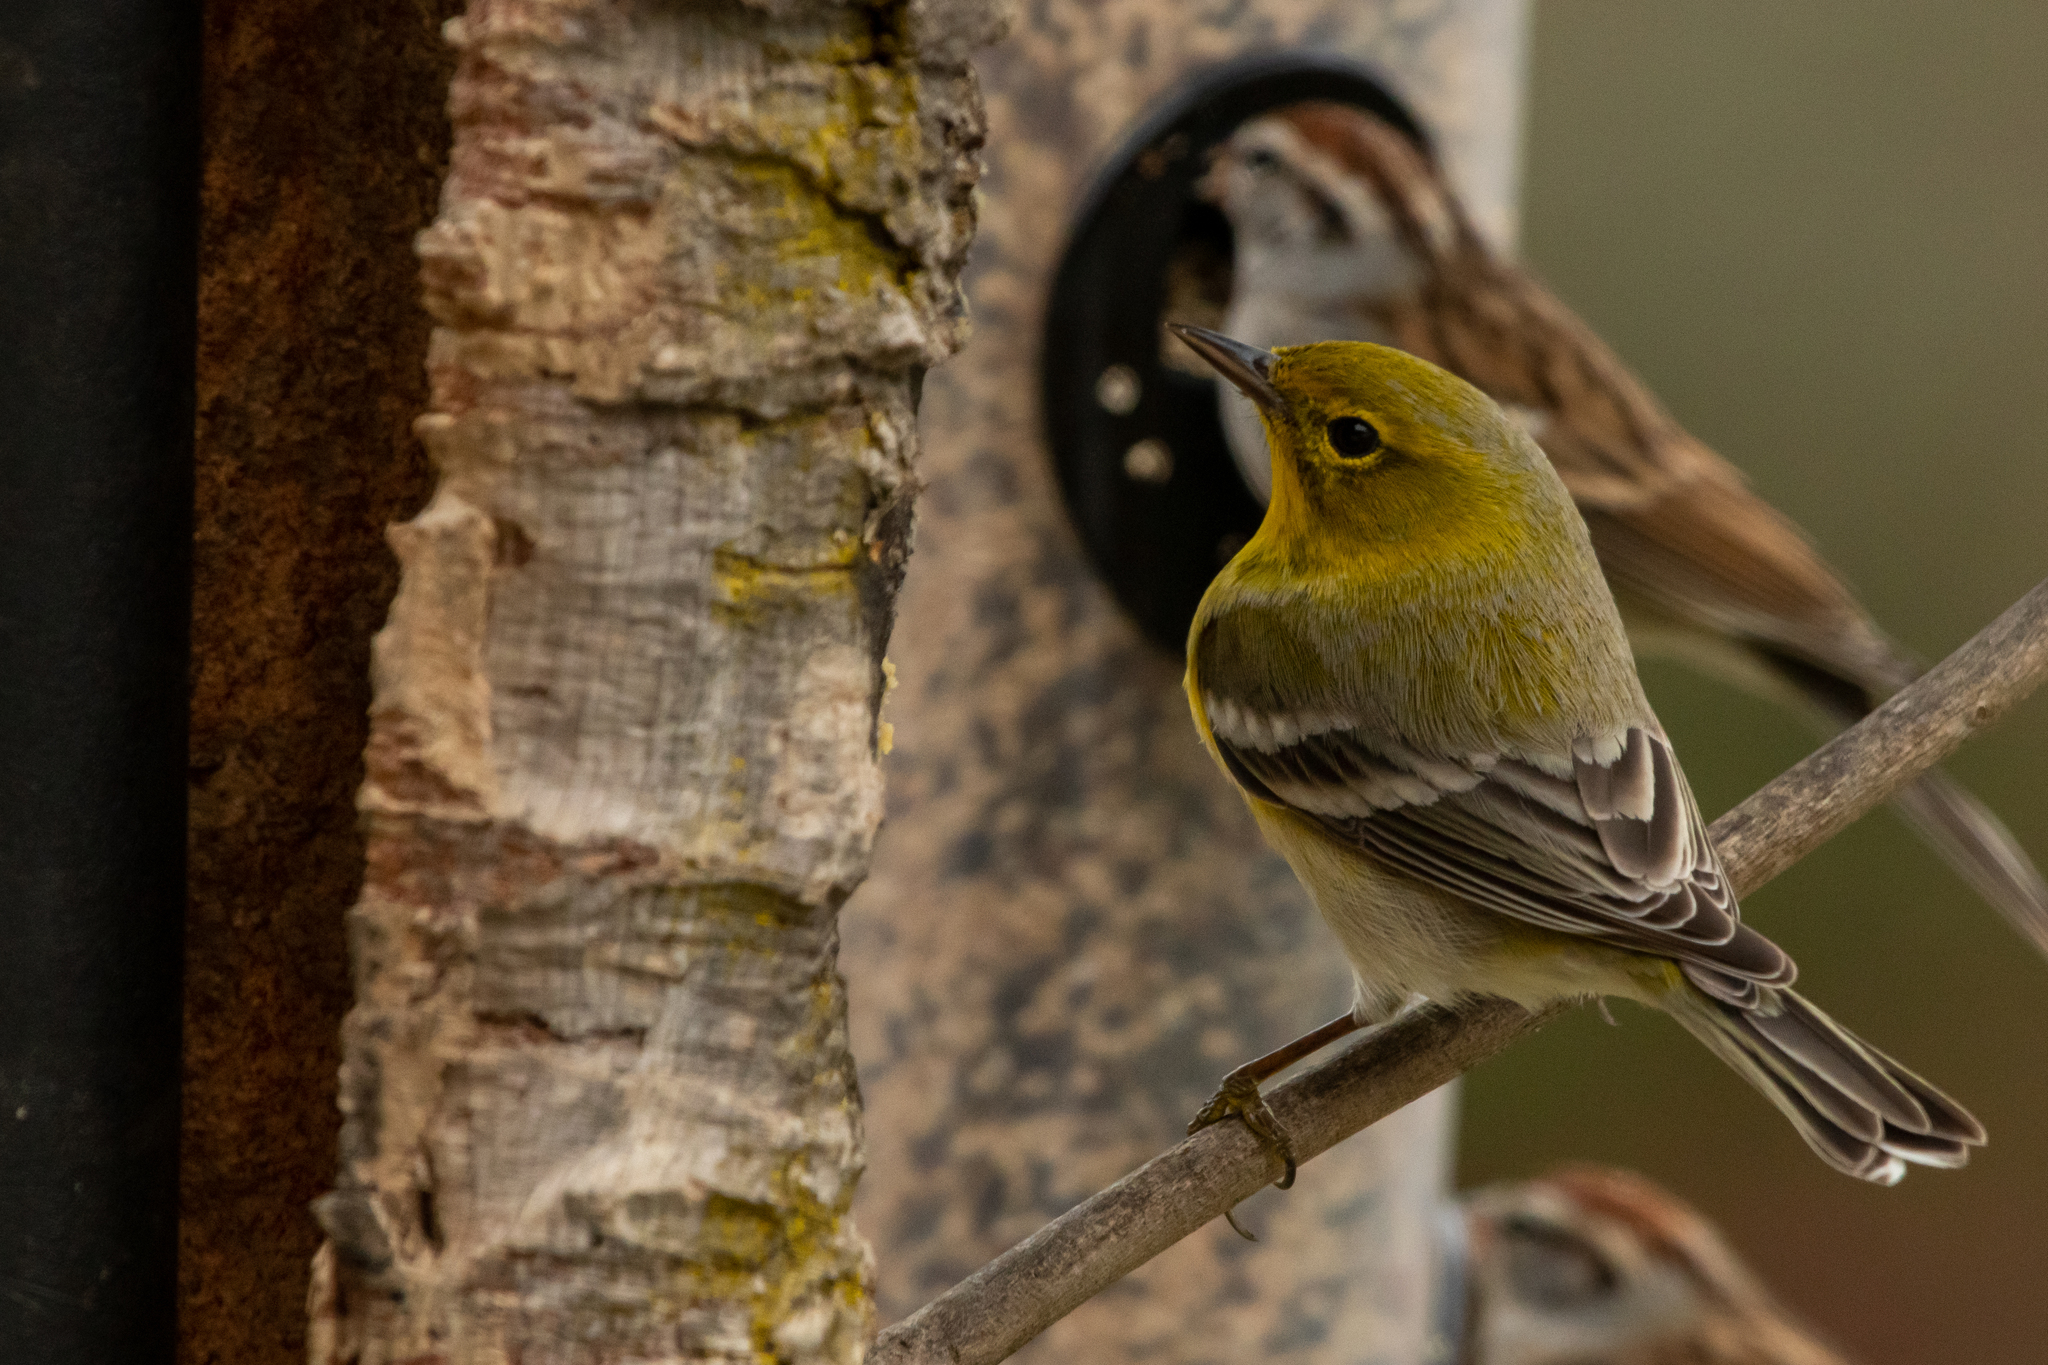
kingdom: Animalia
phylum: Chordata
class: Aves
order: Passeriformes
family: Parulidae
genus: Setophaga
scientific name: Setophaga pinus
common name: Pine warbler
